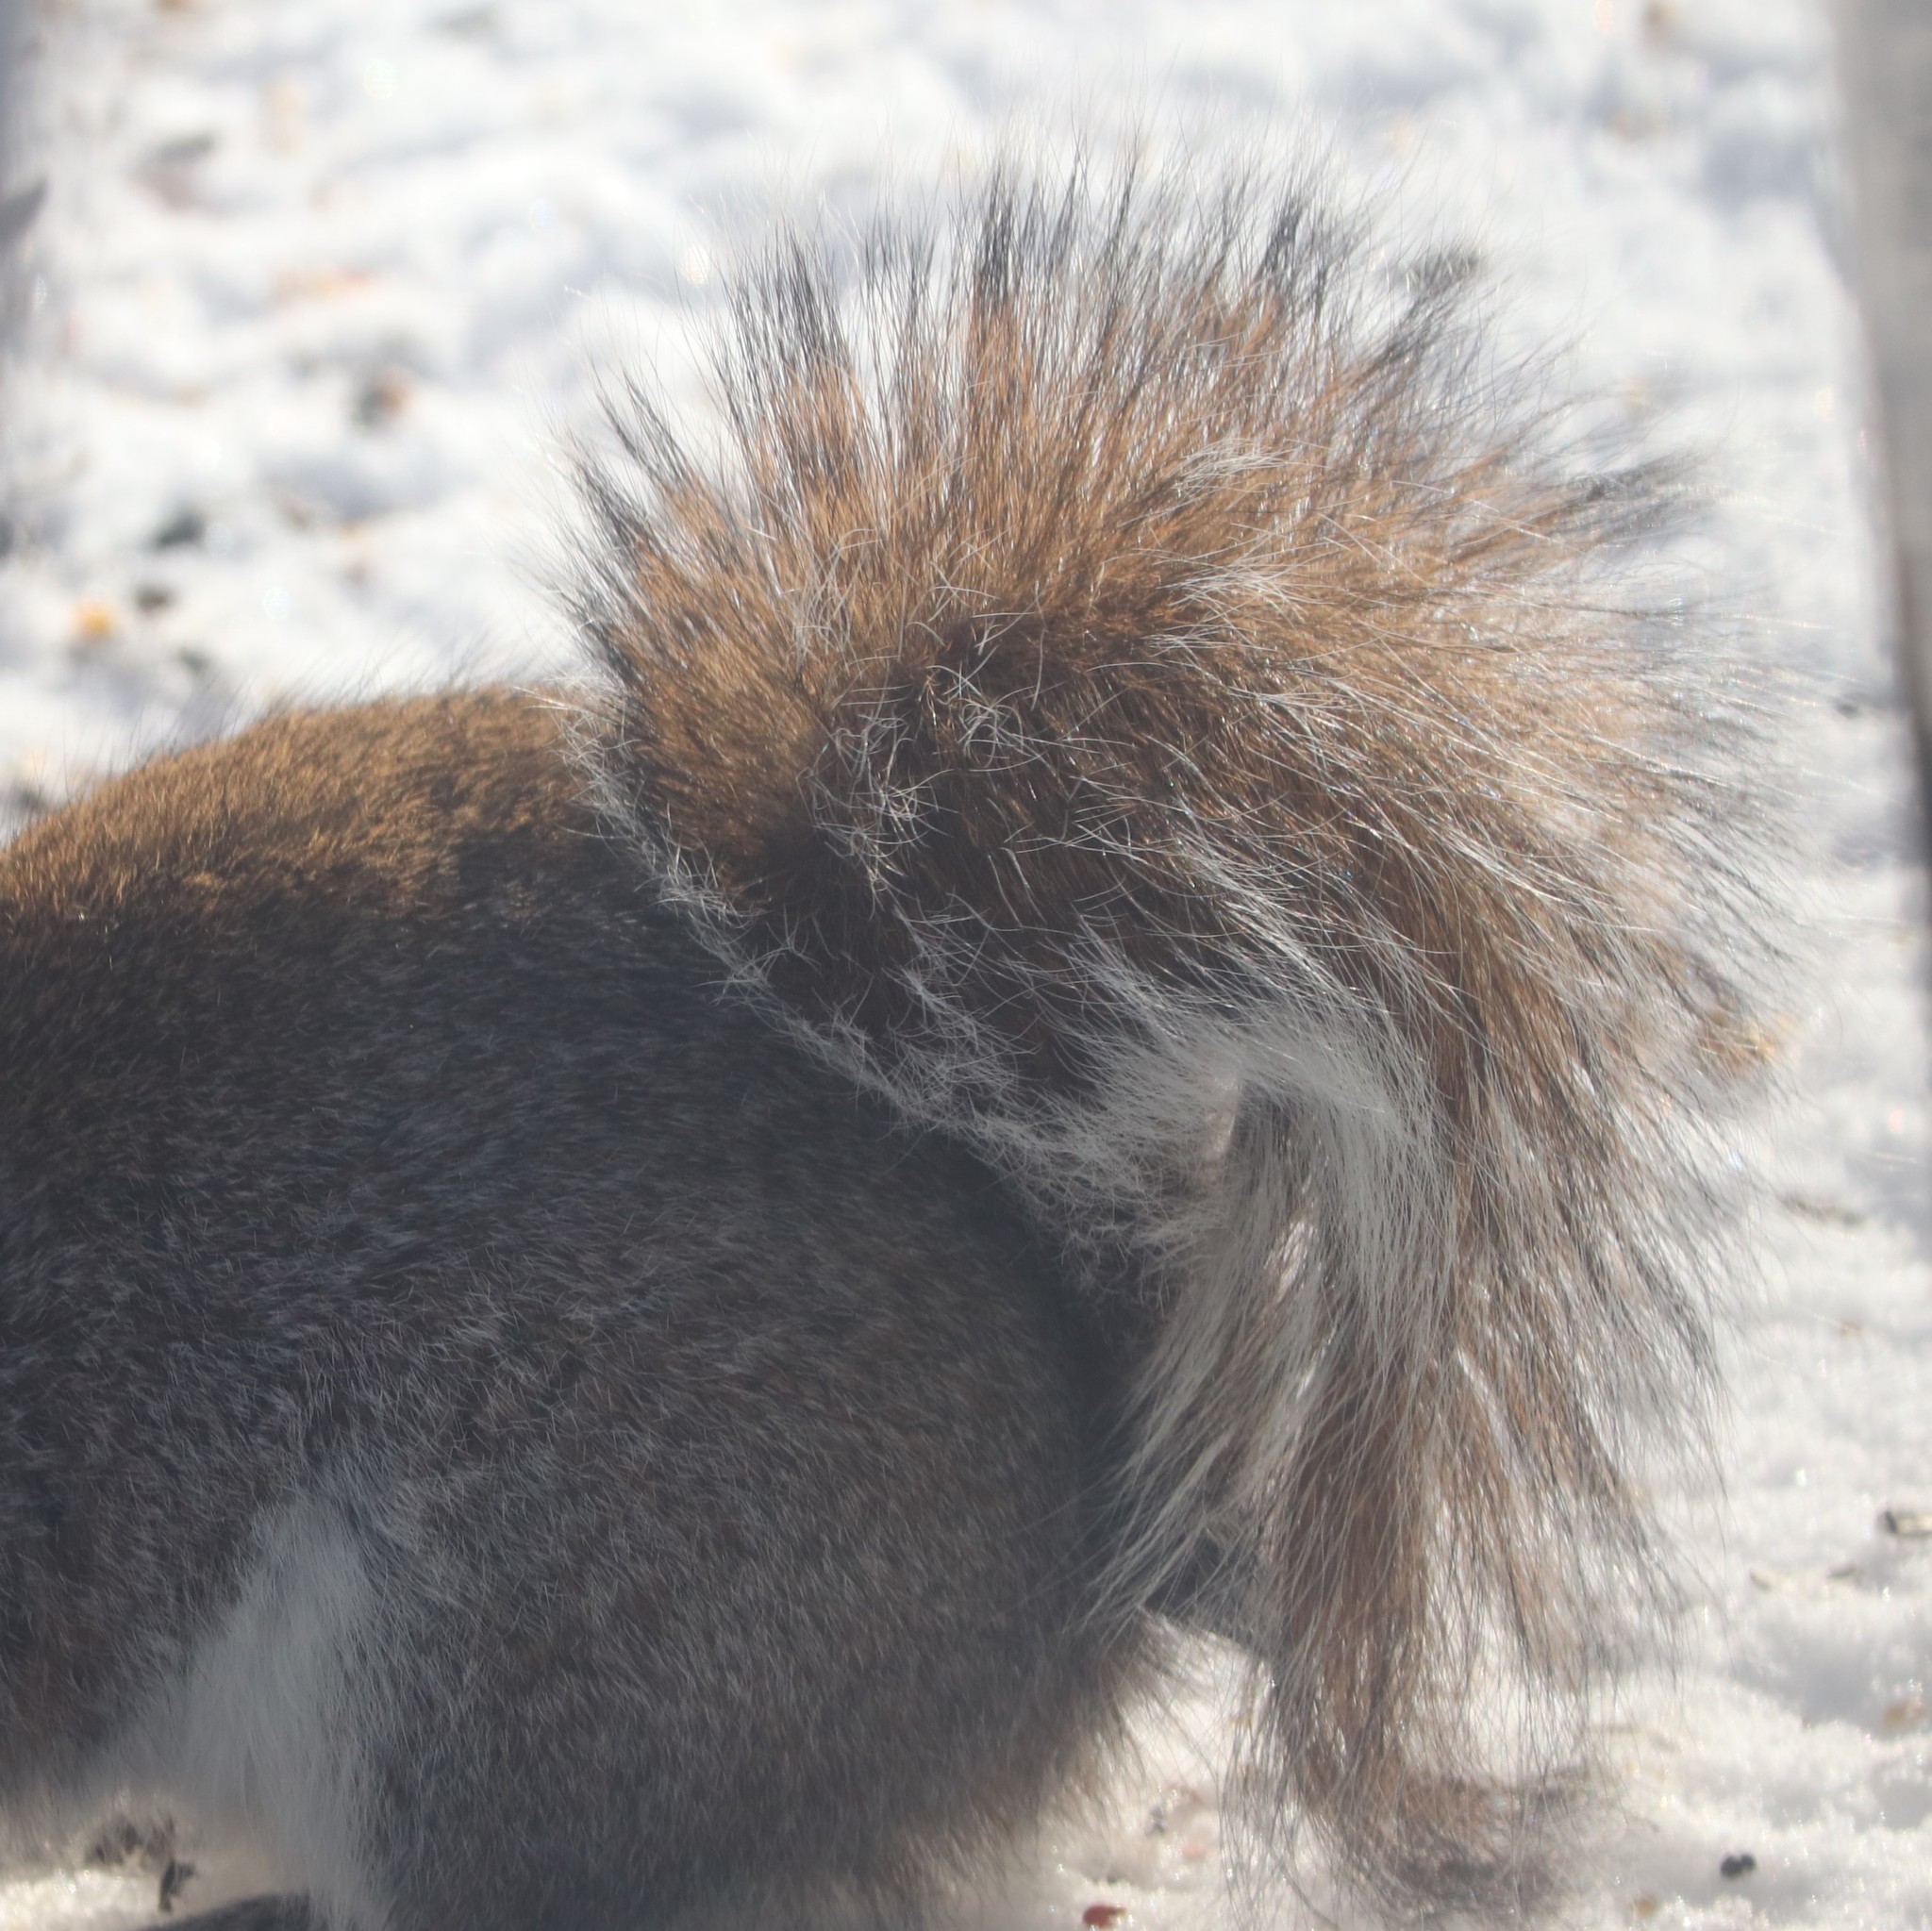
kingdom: Animalia
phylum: Chordata
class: Mammalia
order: Rodentia
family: Sciuridae
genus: Sciurus
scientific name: Sciurus carolinensis
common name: Eastern gray squirrel
